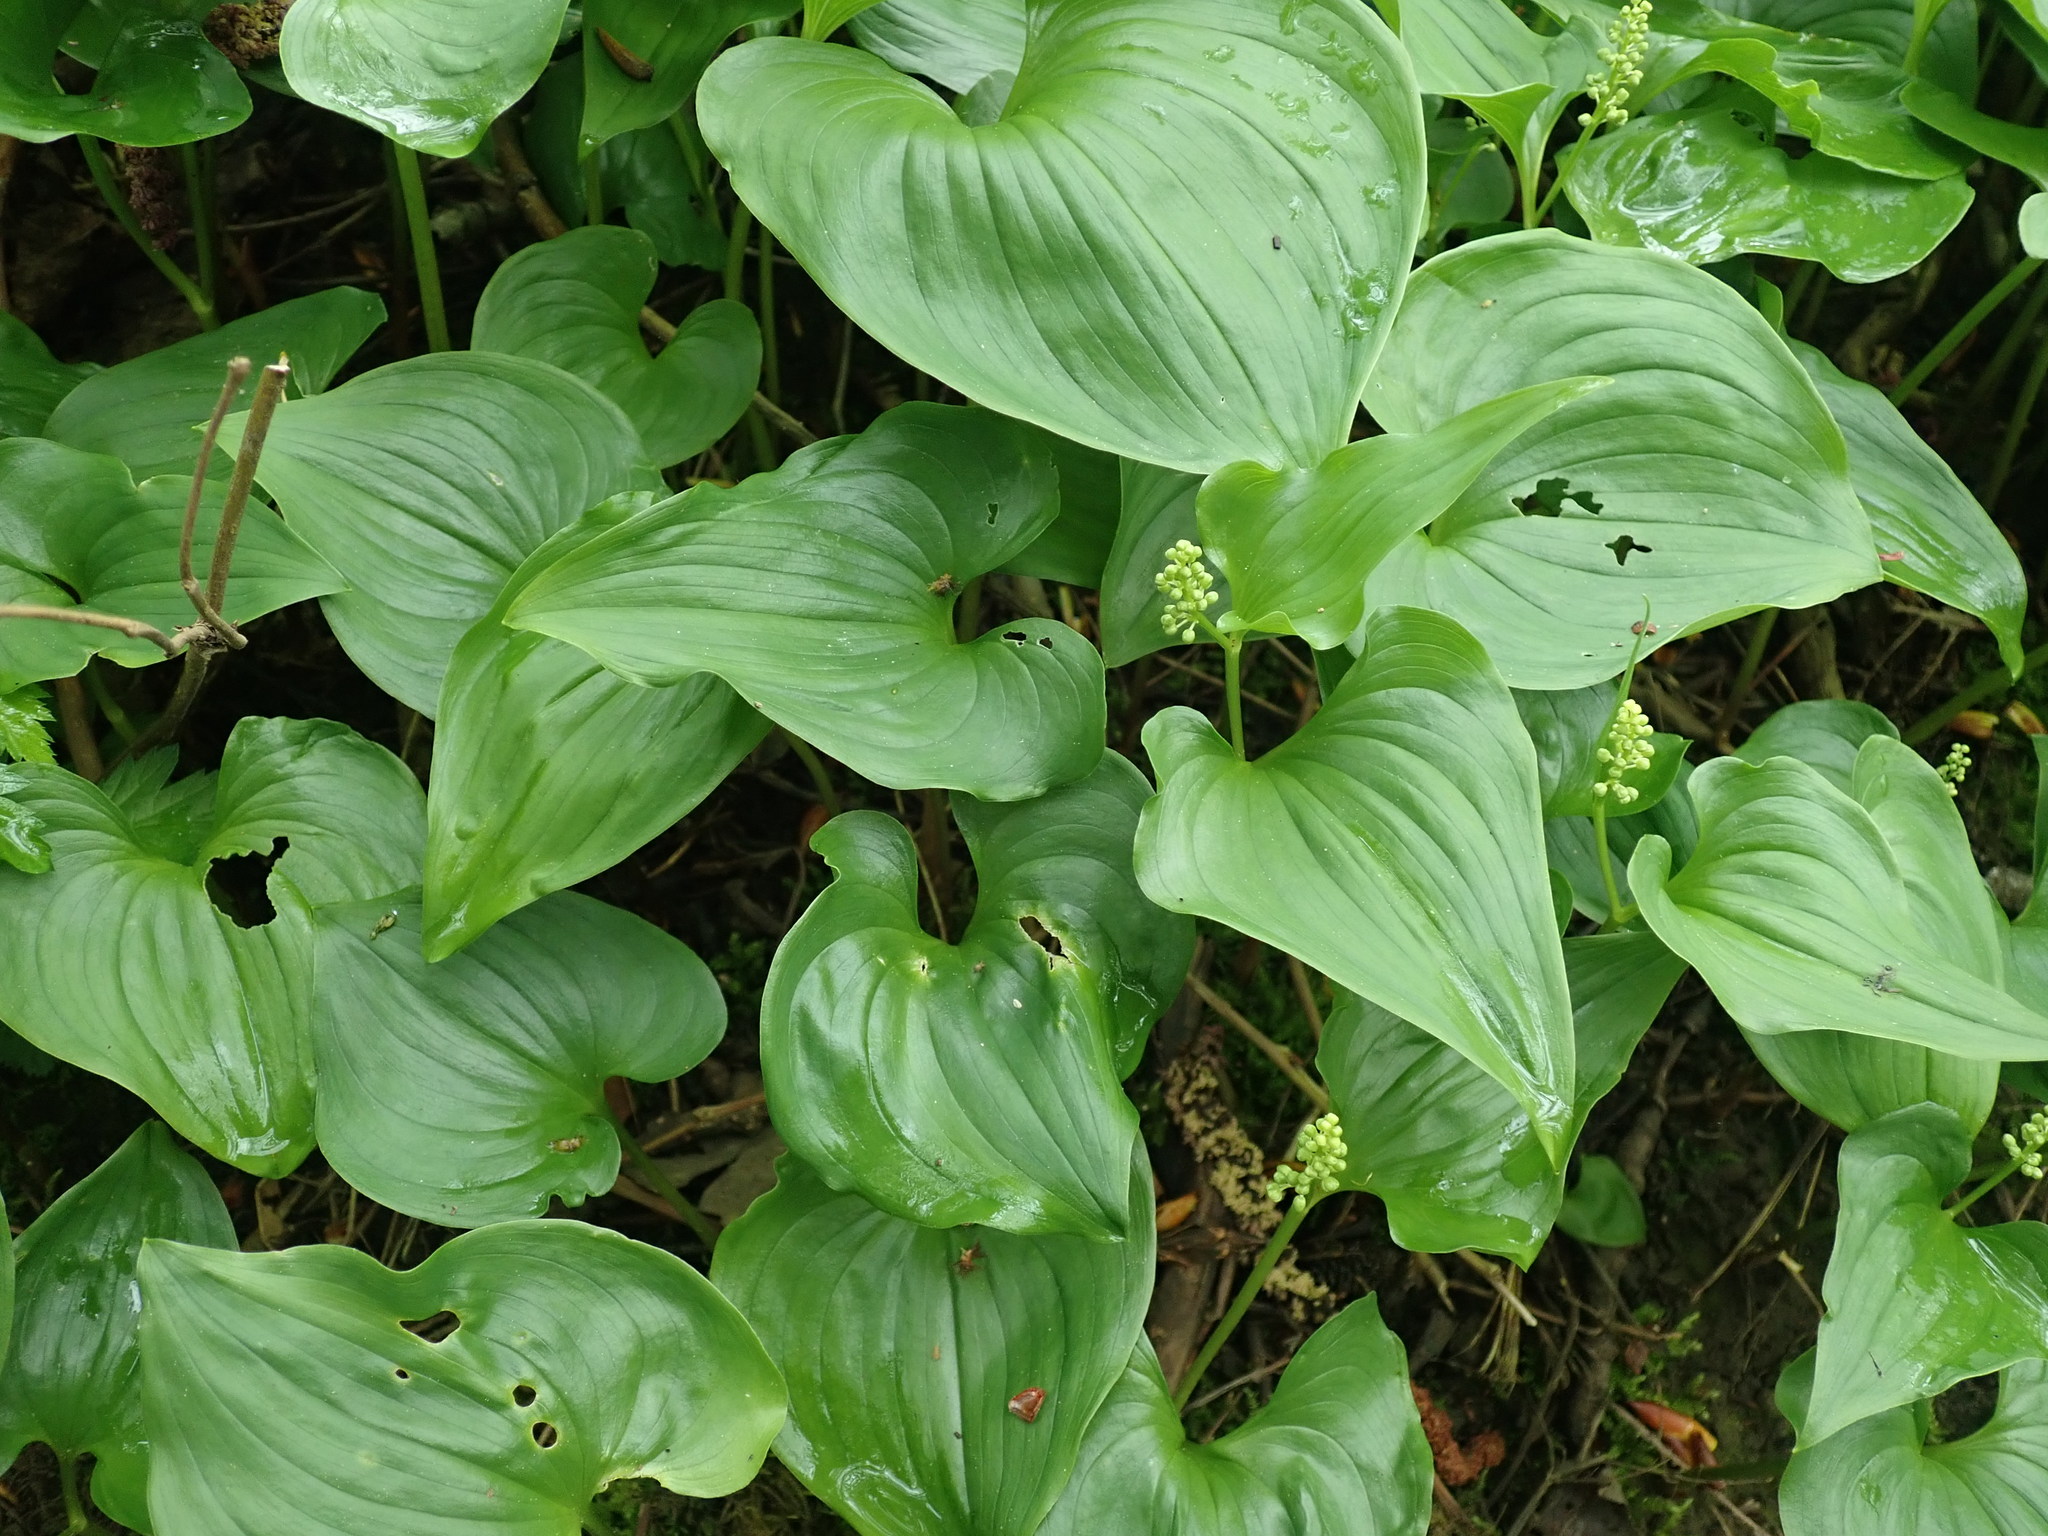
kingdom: Plantae
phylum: Tracheophyta
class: Liliopsida
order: Asparagales
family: Asparagaceae
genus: Maianthemum
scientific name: Maianthemum dilatatum
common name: False lily-of-the-valley
